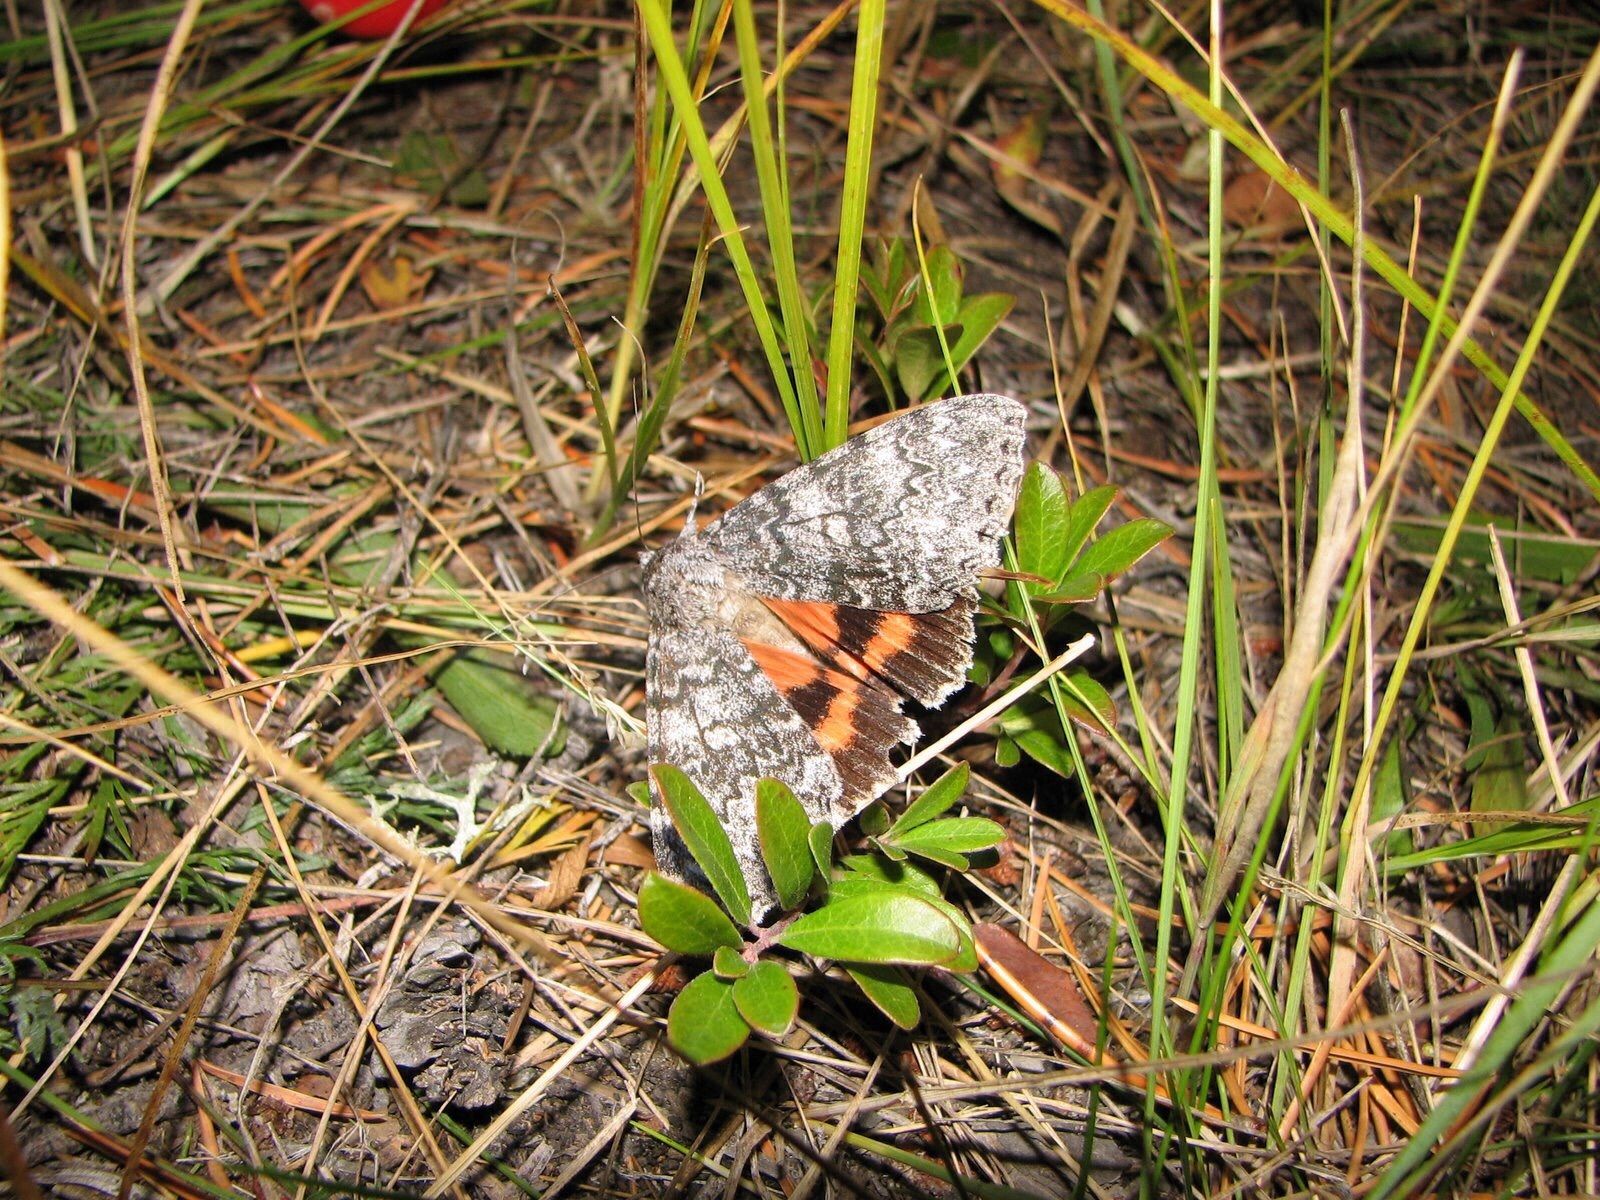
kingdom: Animalia
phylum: Arthropoda
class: Insecta
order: Lepidoptera
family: Erebidae
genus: Catocala
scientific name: Catocala unijuga
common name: Once-married underwing
